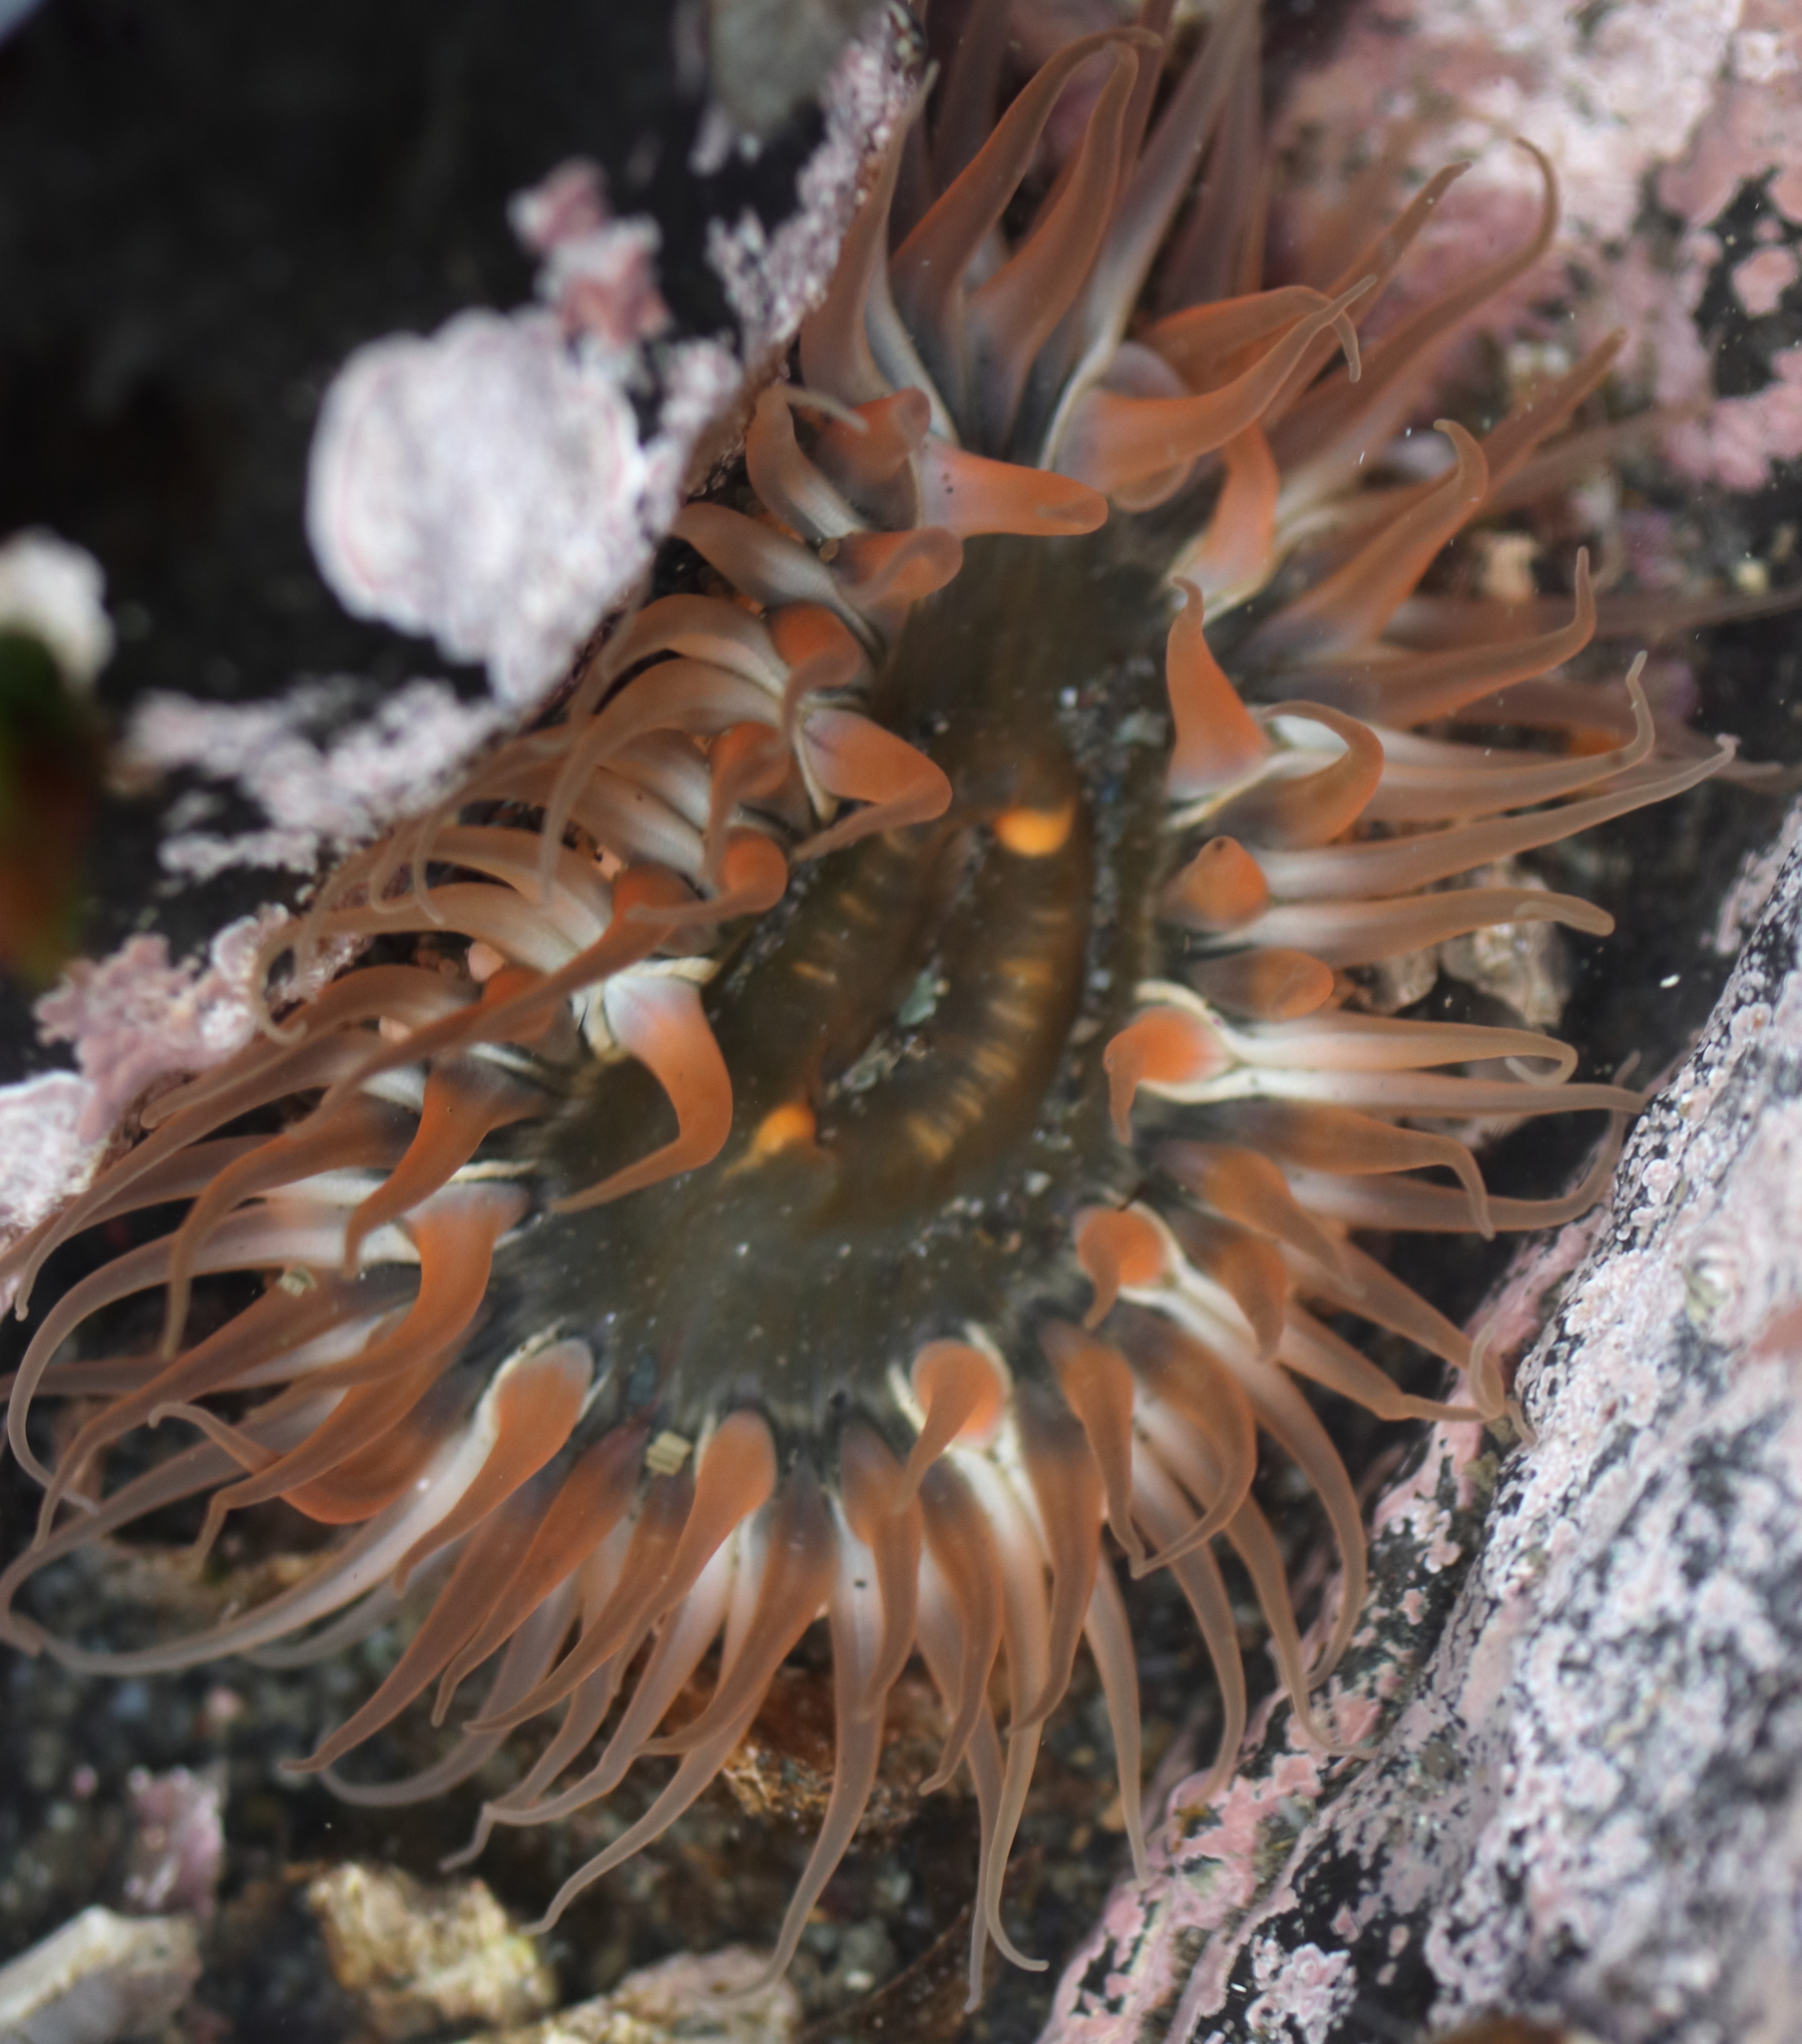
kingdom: Animalia
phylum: Cnidaria
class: Anthozoa
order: Actiniaria
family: Actiniidae
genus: Anthopleura
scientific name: Anthopleura artemisia
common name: Buried sea anemone
